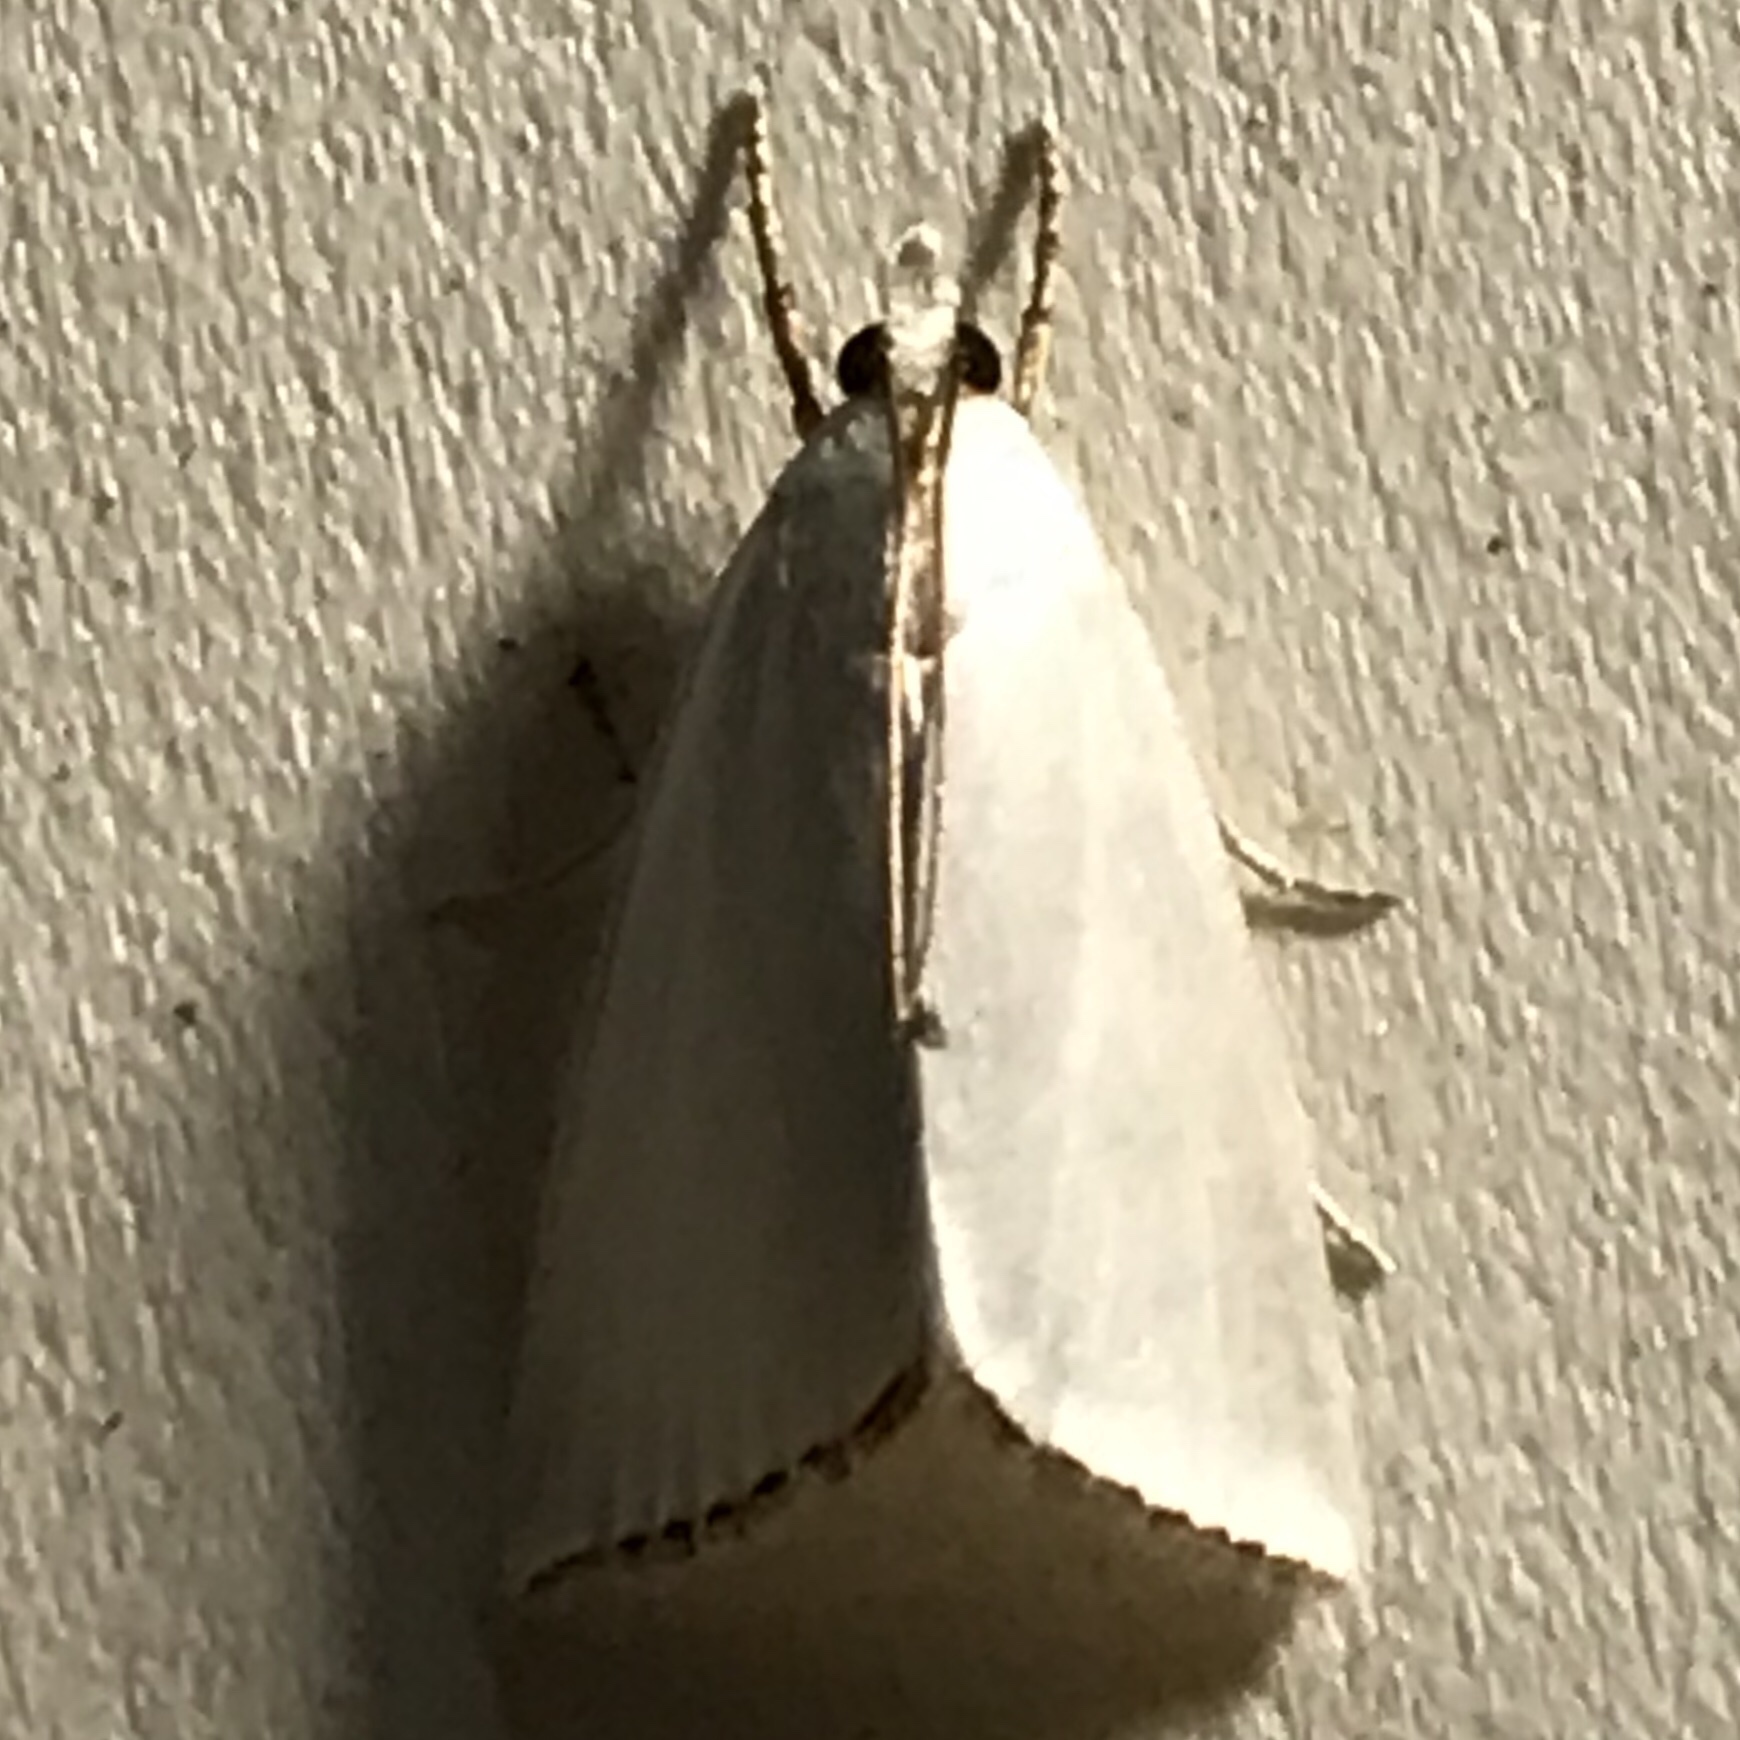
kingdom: Animalia
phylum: Arthropoda
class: Insecta
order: Lepidoptera
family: Crambidae
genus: Argyria
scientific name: Argyria nivalis
